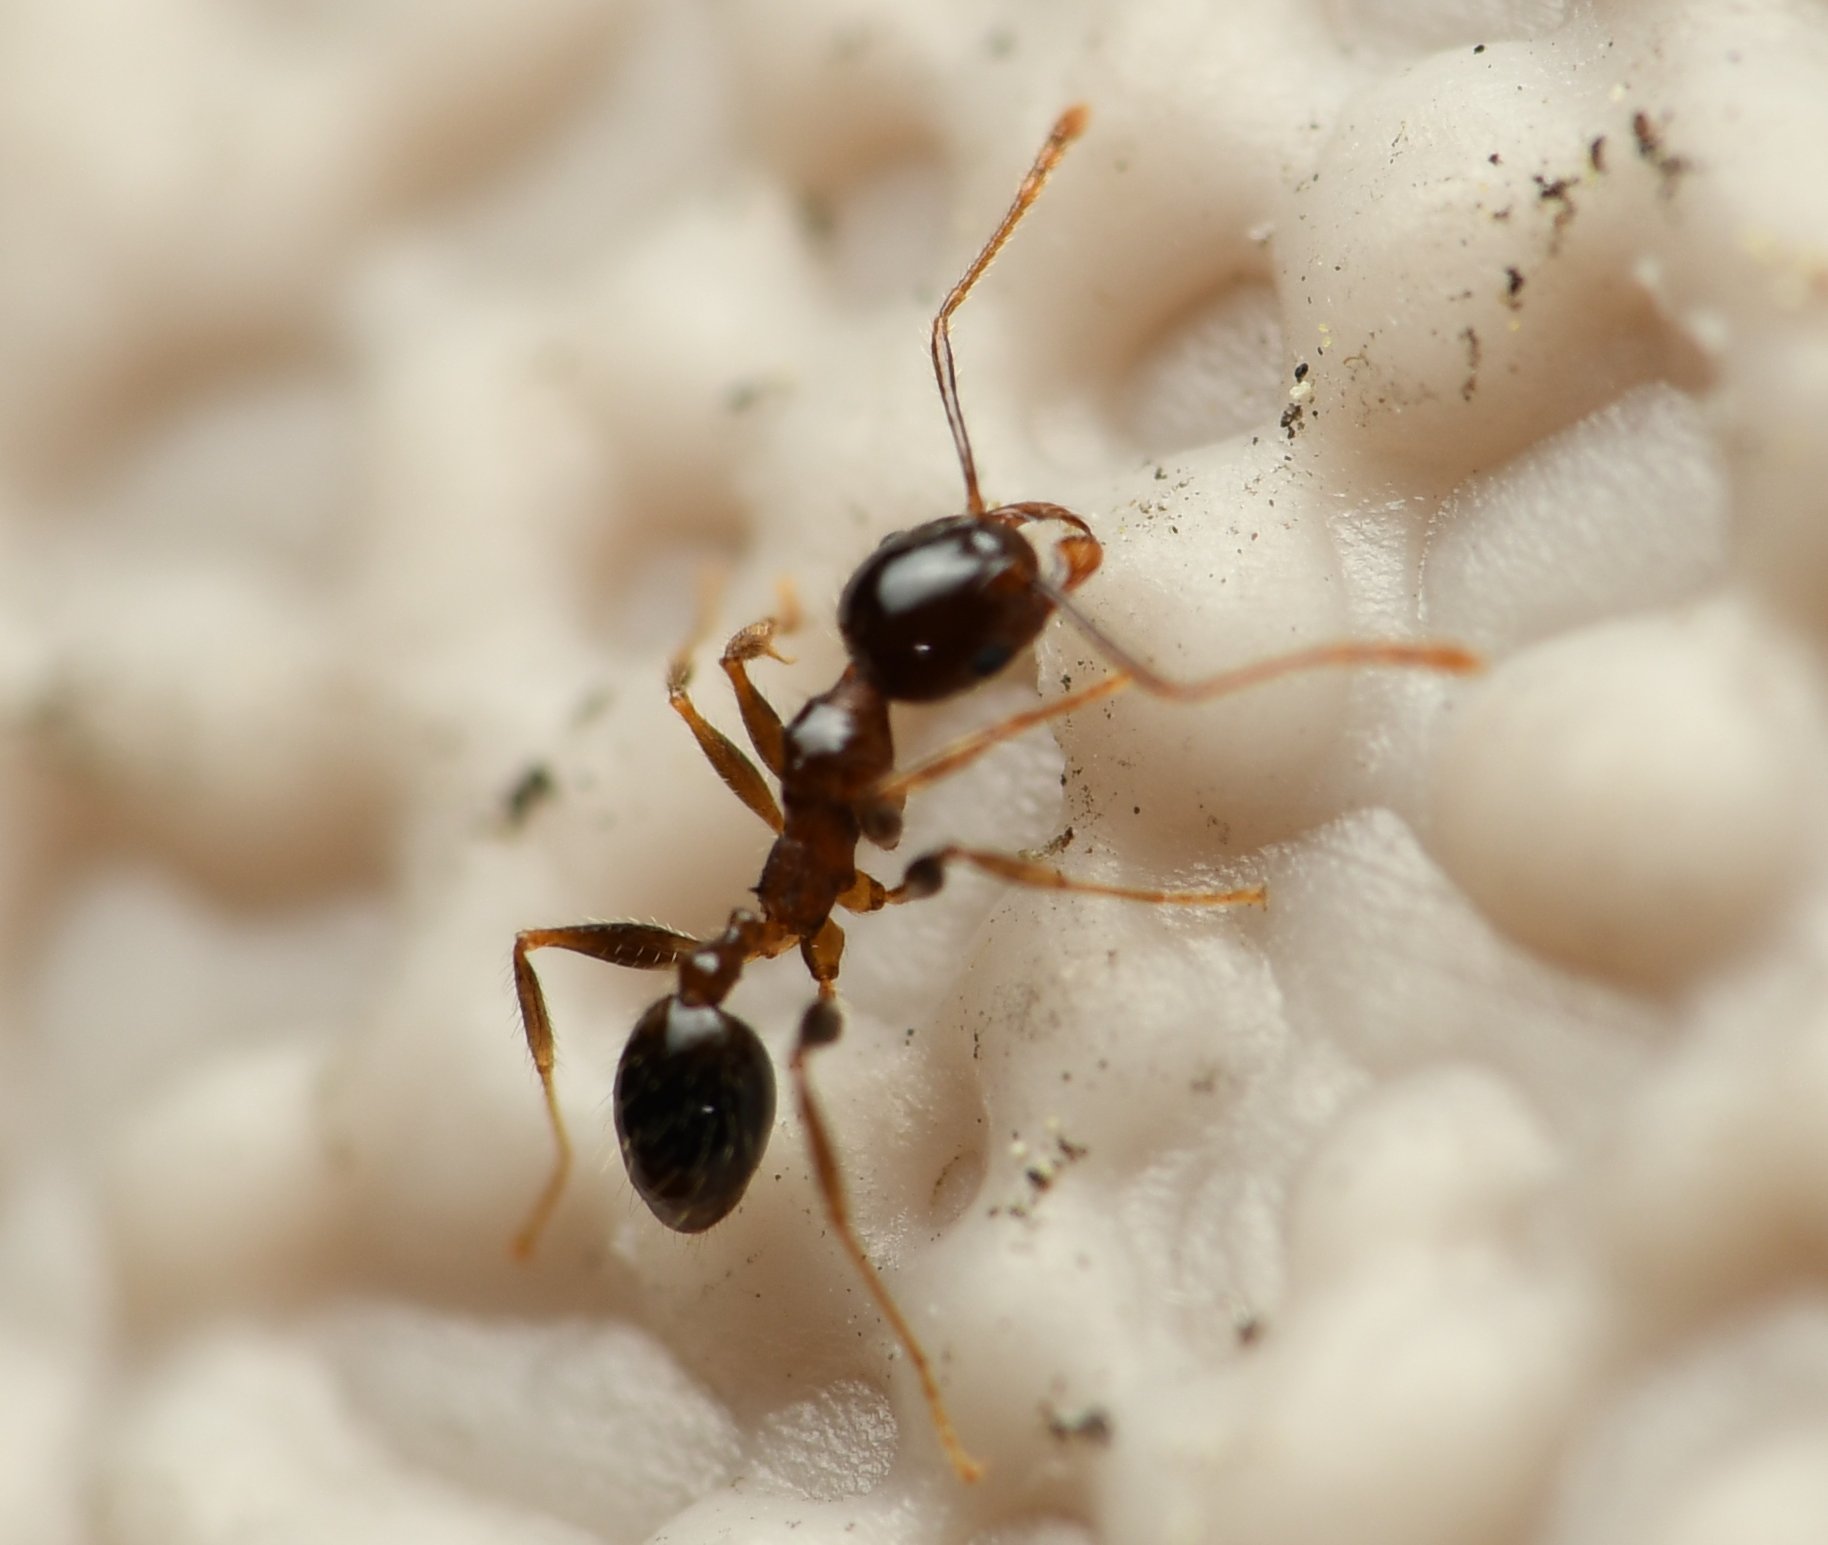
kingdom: Animalia
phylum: Arthropoda
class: Insecta
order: Hymenoptera
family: Formicidae
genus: Pheidole
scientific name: Pheidole megacephala
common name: Bigheaded ant
